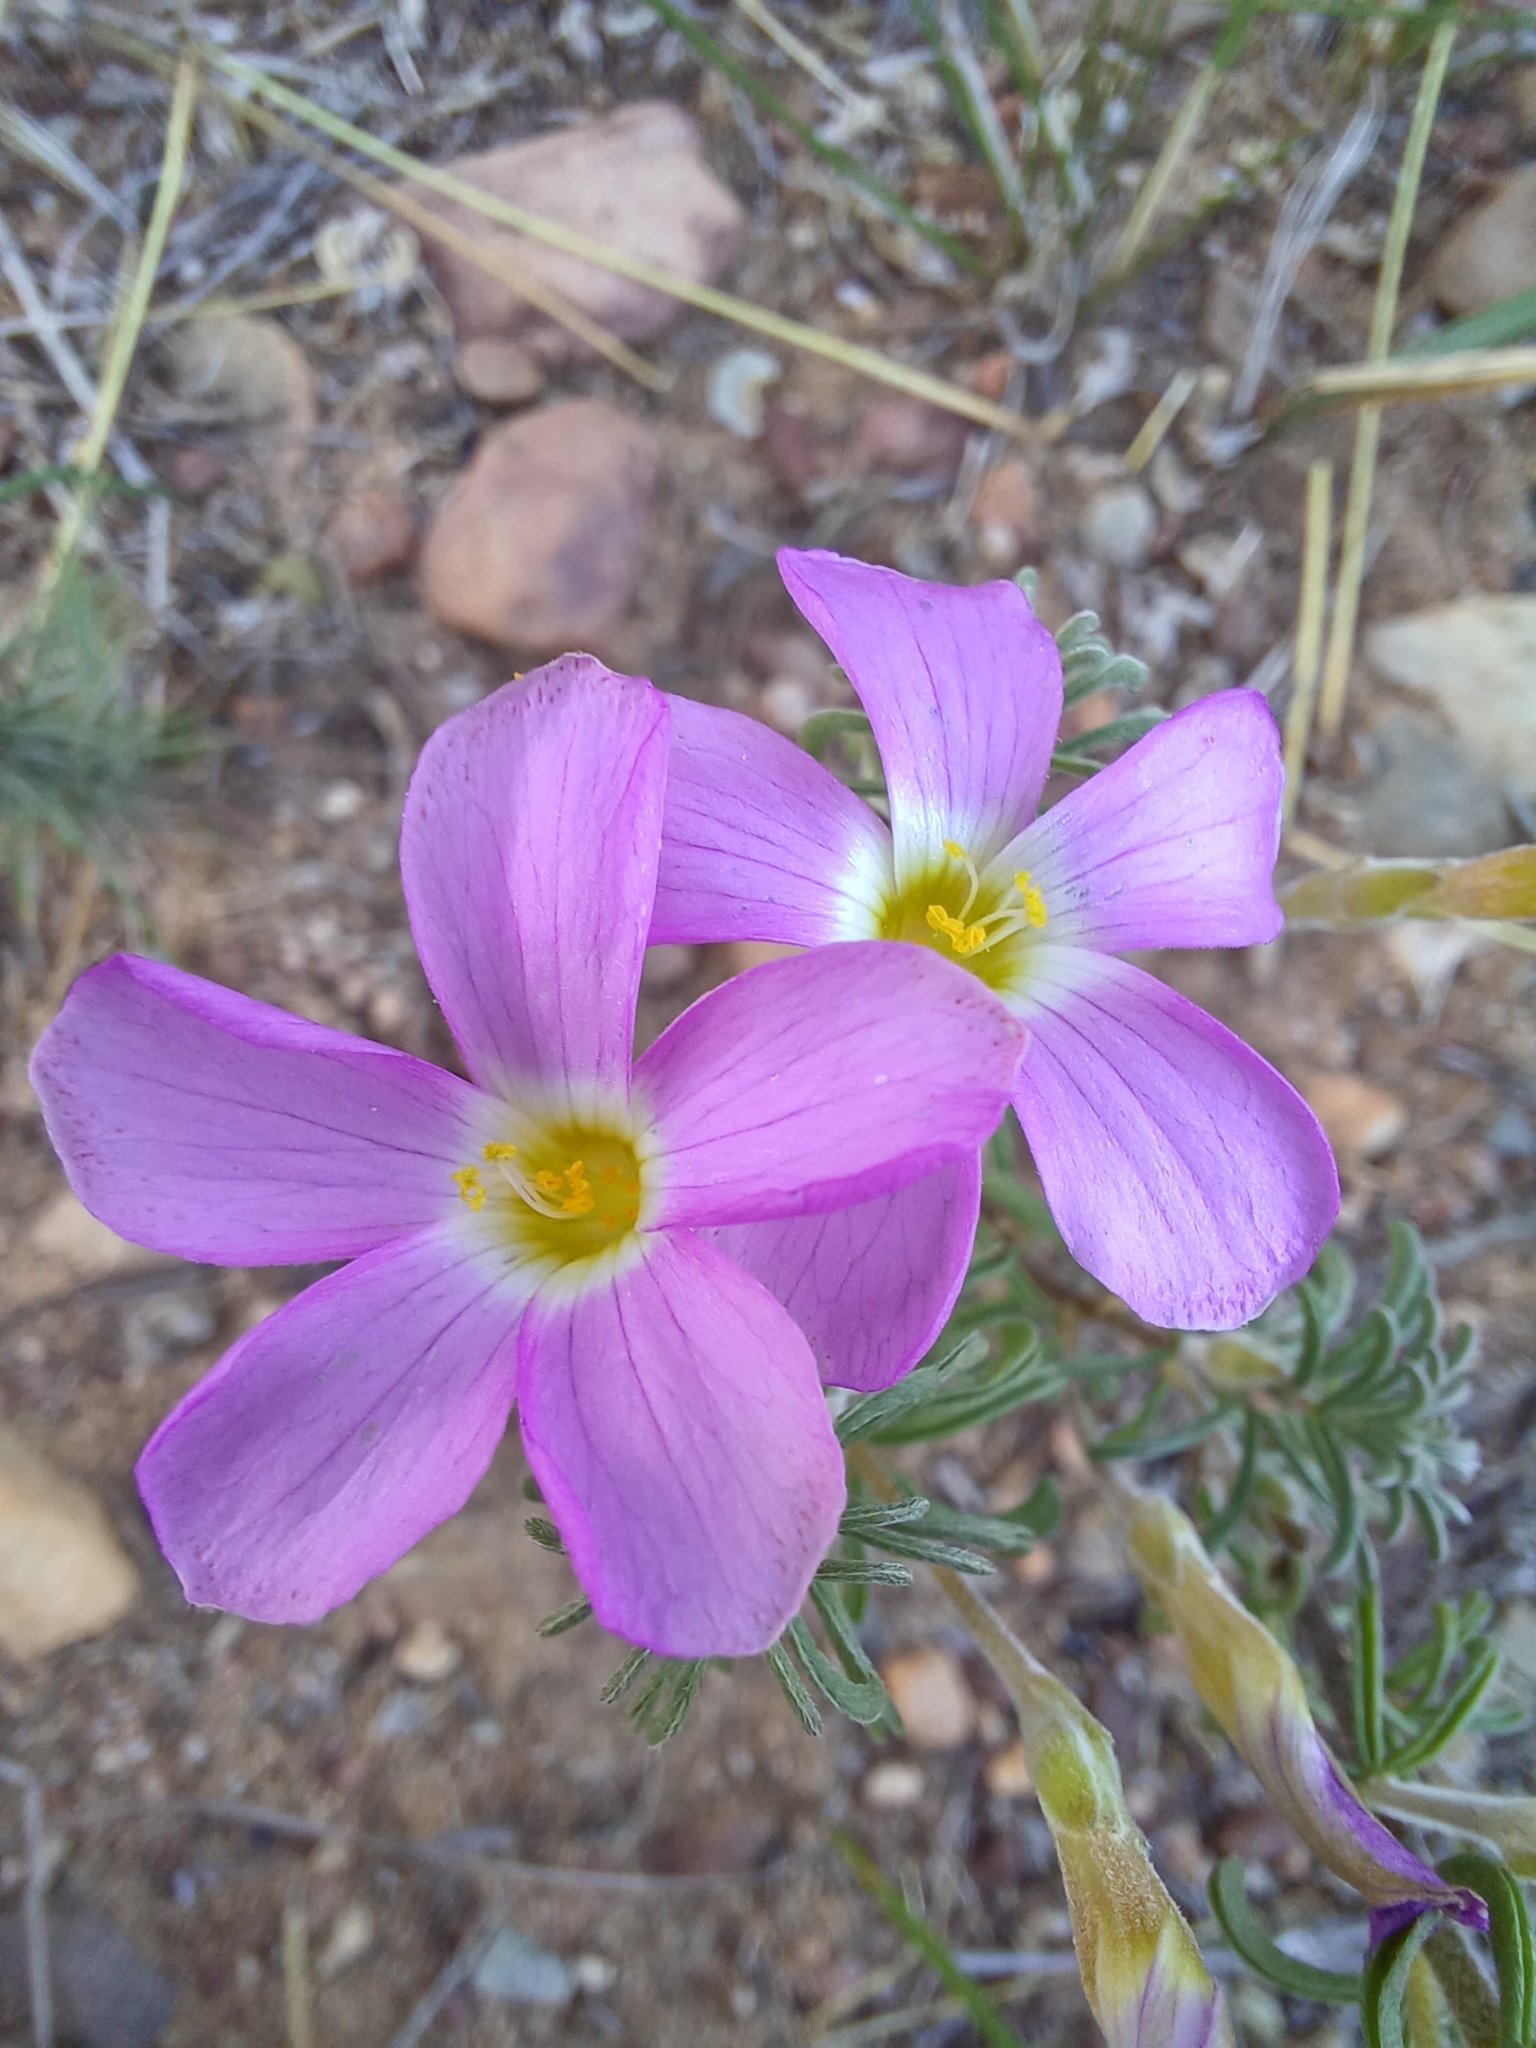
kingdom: Plantae
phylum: Tracheophyta
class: Magnoliopsida
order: Oxalidales
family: Oxalidaceae
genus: Oxalis
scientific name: Oxalis hirta
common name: Tropical woodsorrel
